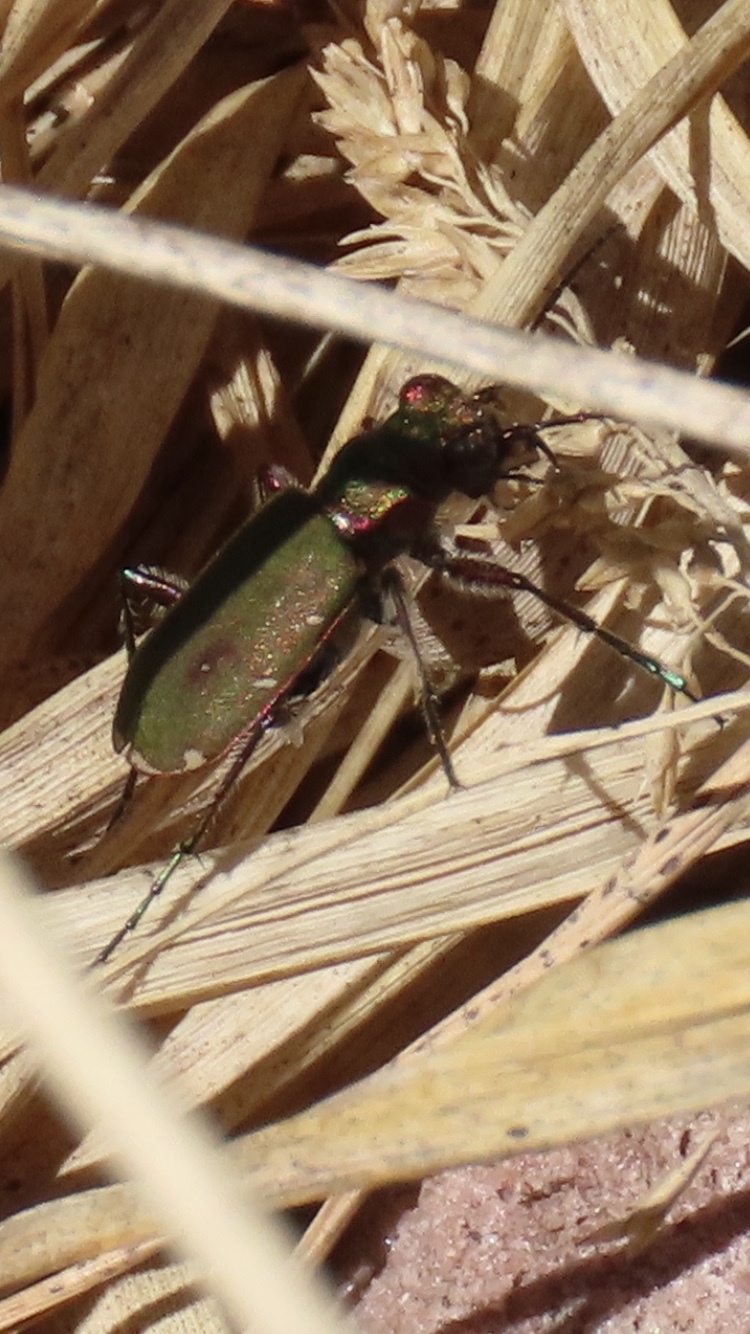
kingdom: Animalia
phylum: Arthropoda
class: Insecta
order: Coleoptera
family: Carabidae
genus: Cicindela
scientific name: Cicindela campestris
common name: Common tiger beetle
